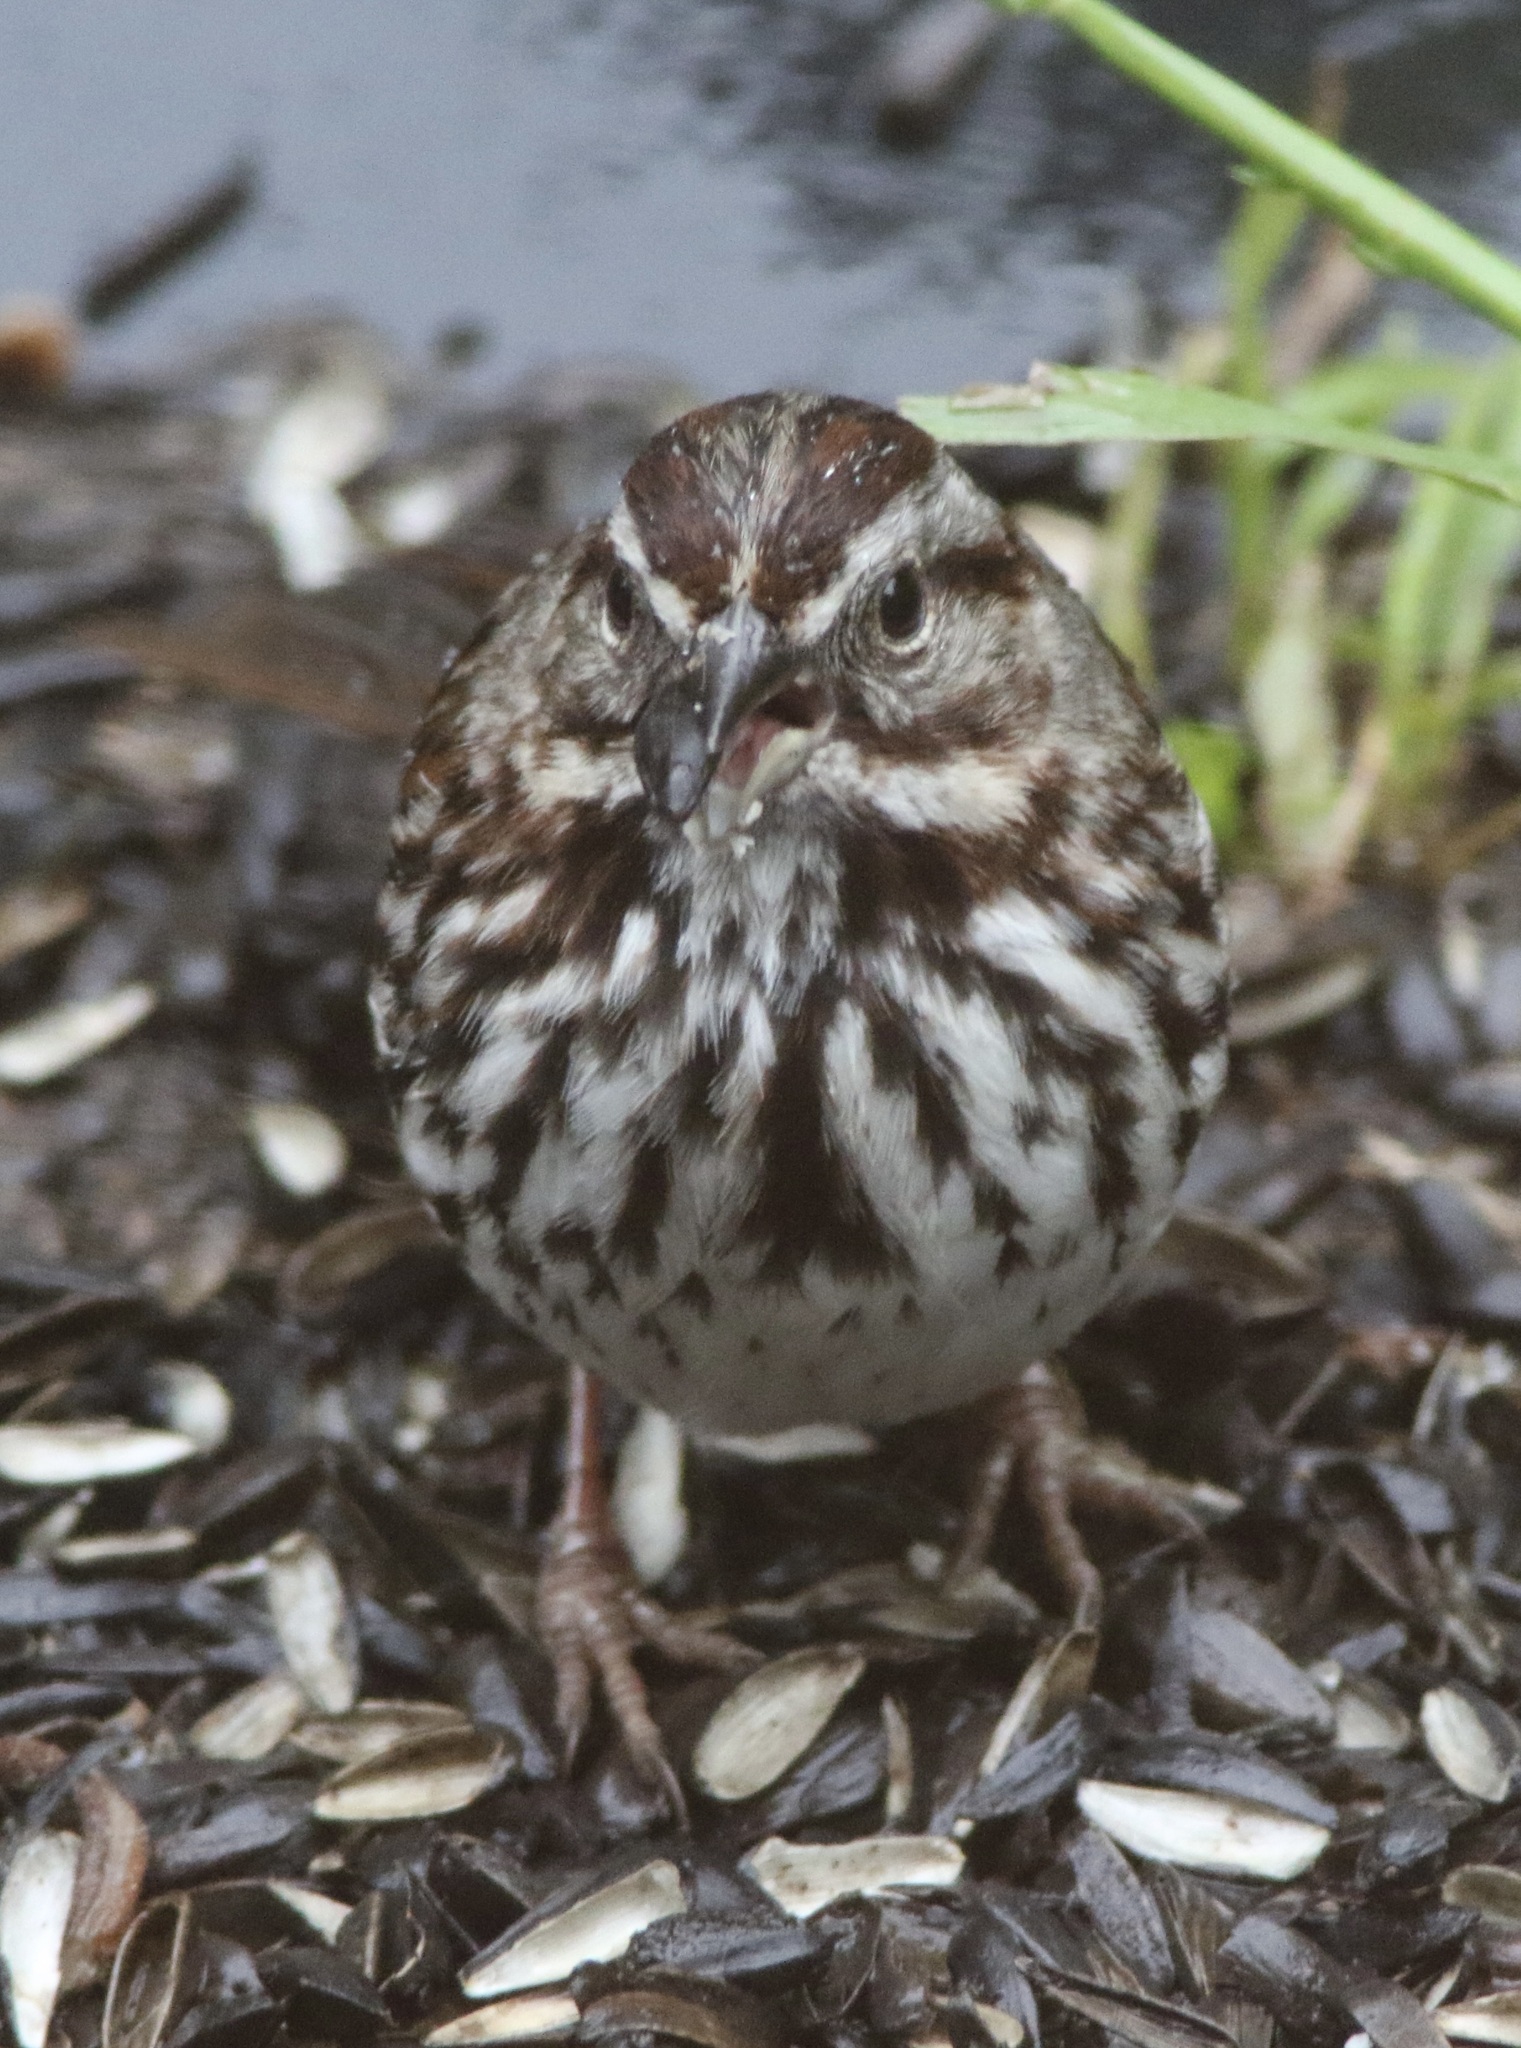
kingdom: Animalia
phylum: Chordata
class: Aves
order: Passeriformes
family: Passerellidae
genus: Melospiza
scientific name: Melospiza melodia
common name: Song sparrow
